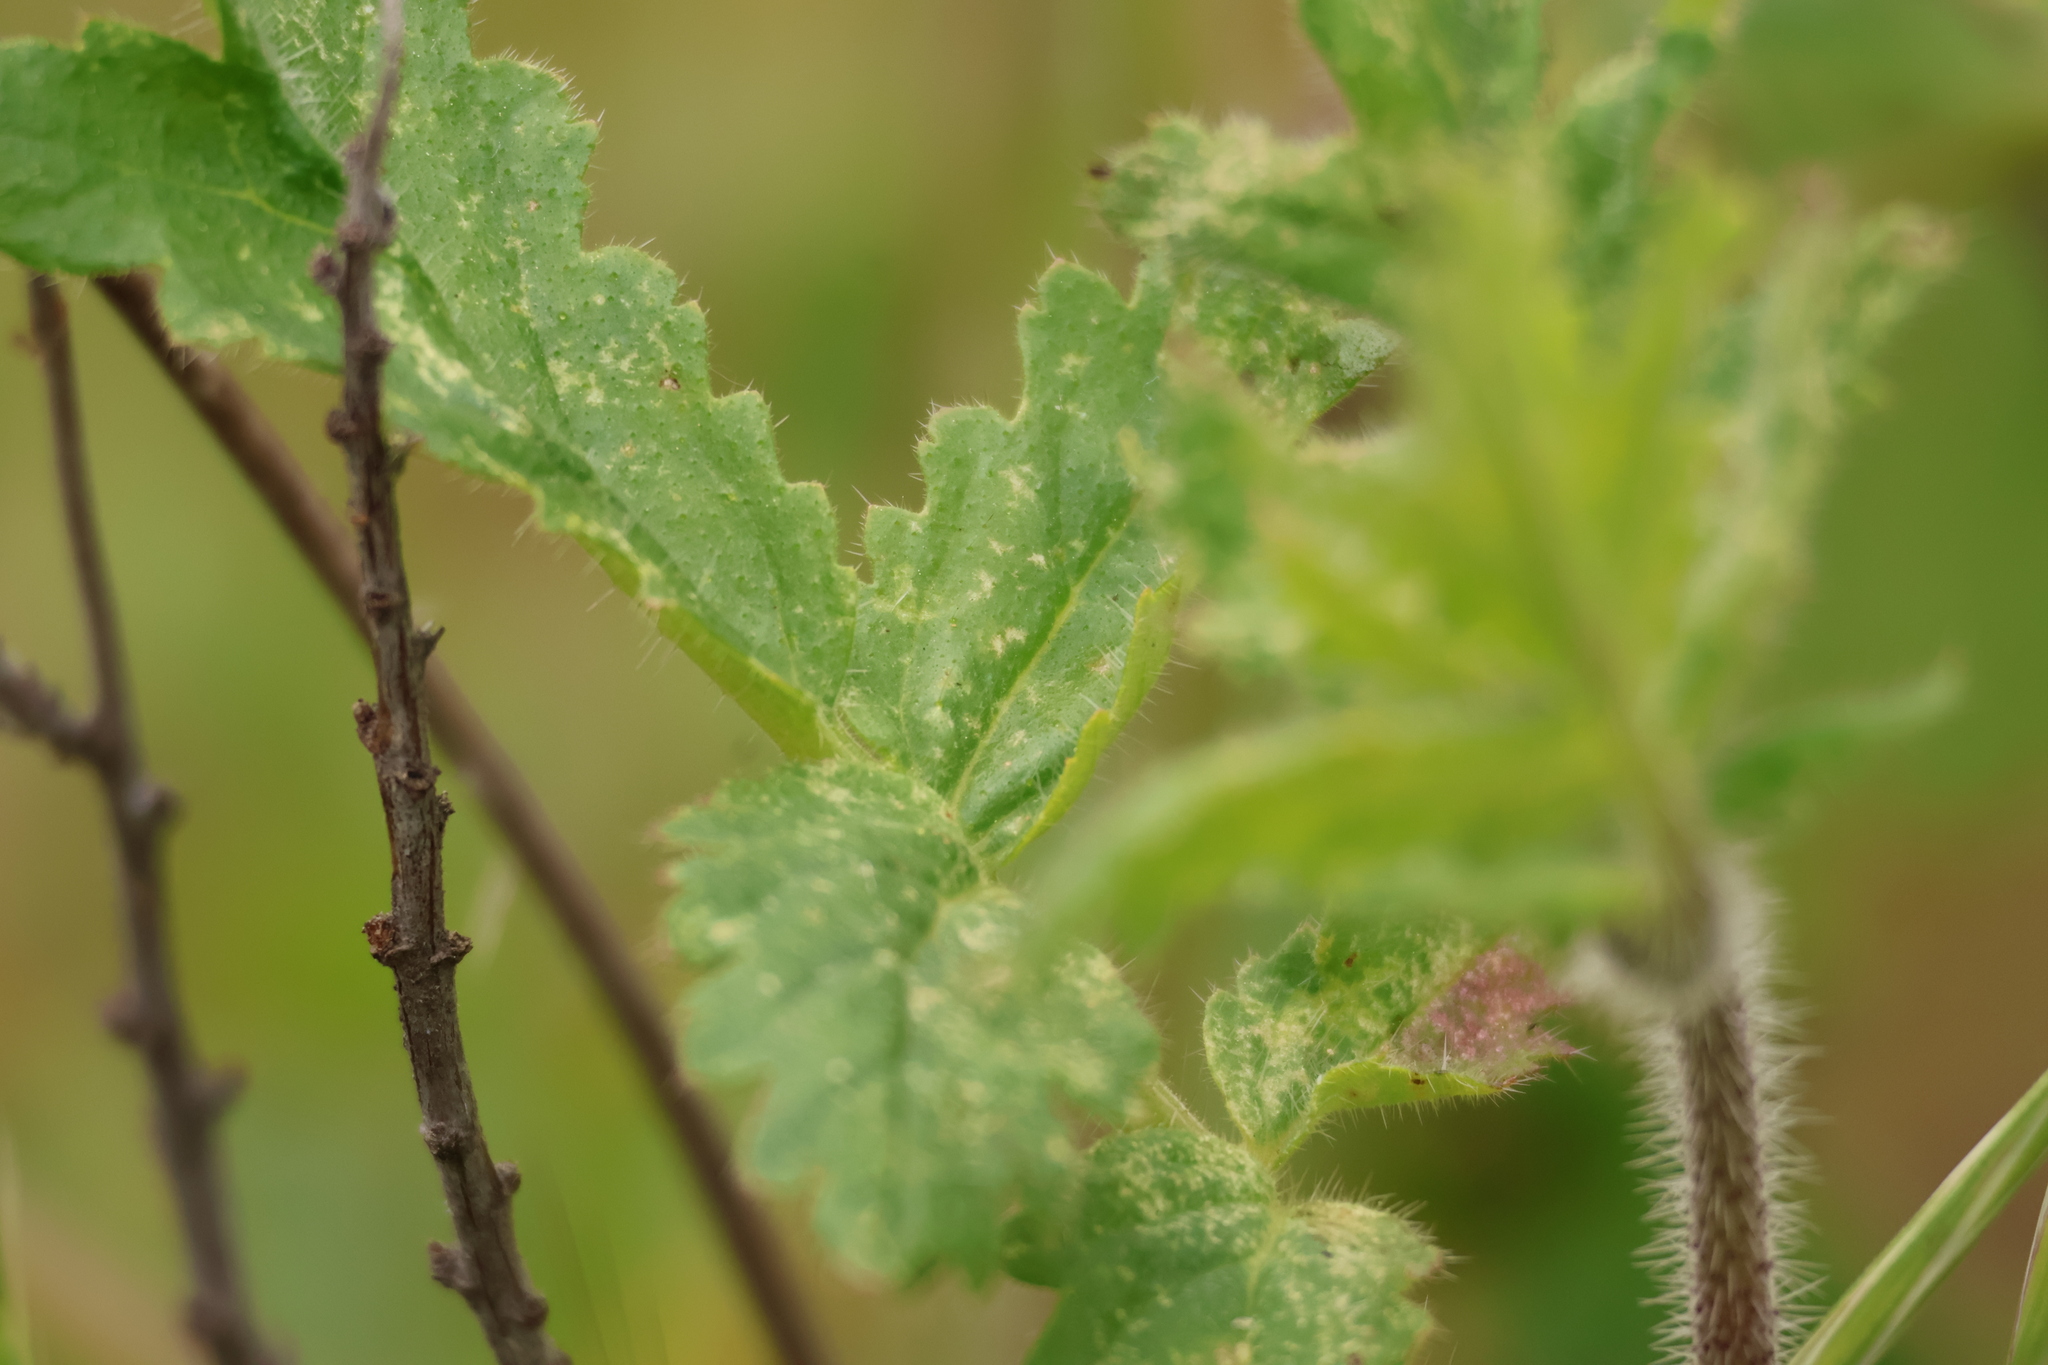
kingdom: Plantae
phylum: Tracheophyta
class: Magnoliopsida
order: Boraginales
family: Hydrophyllaceae
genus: Phacelia
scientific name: Phacelia cicutaria
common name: Caterpillar phacelia
